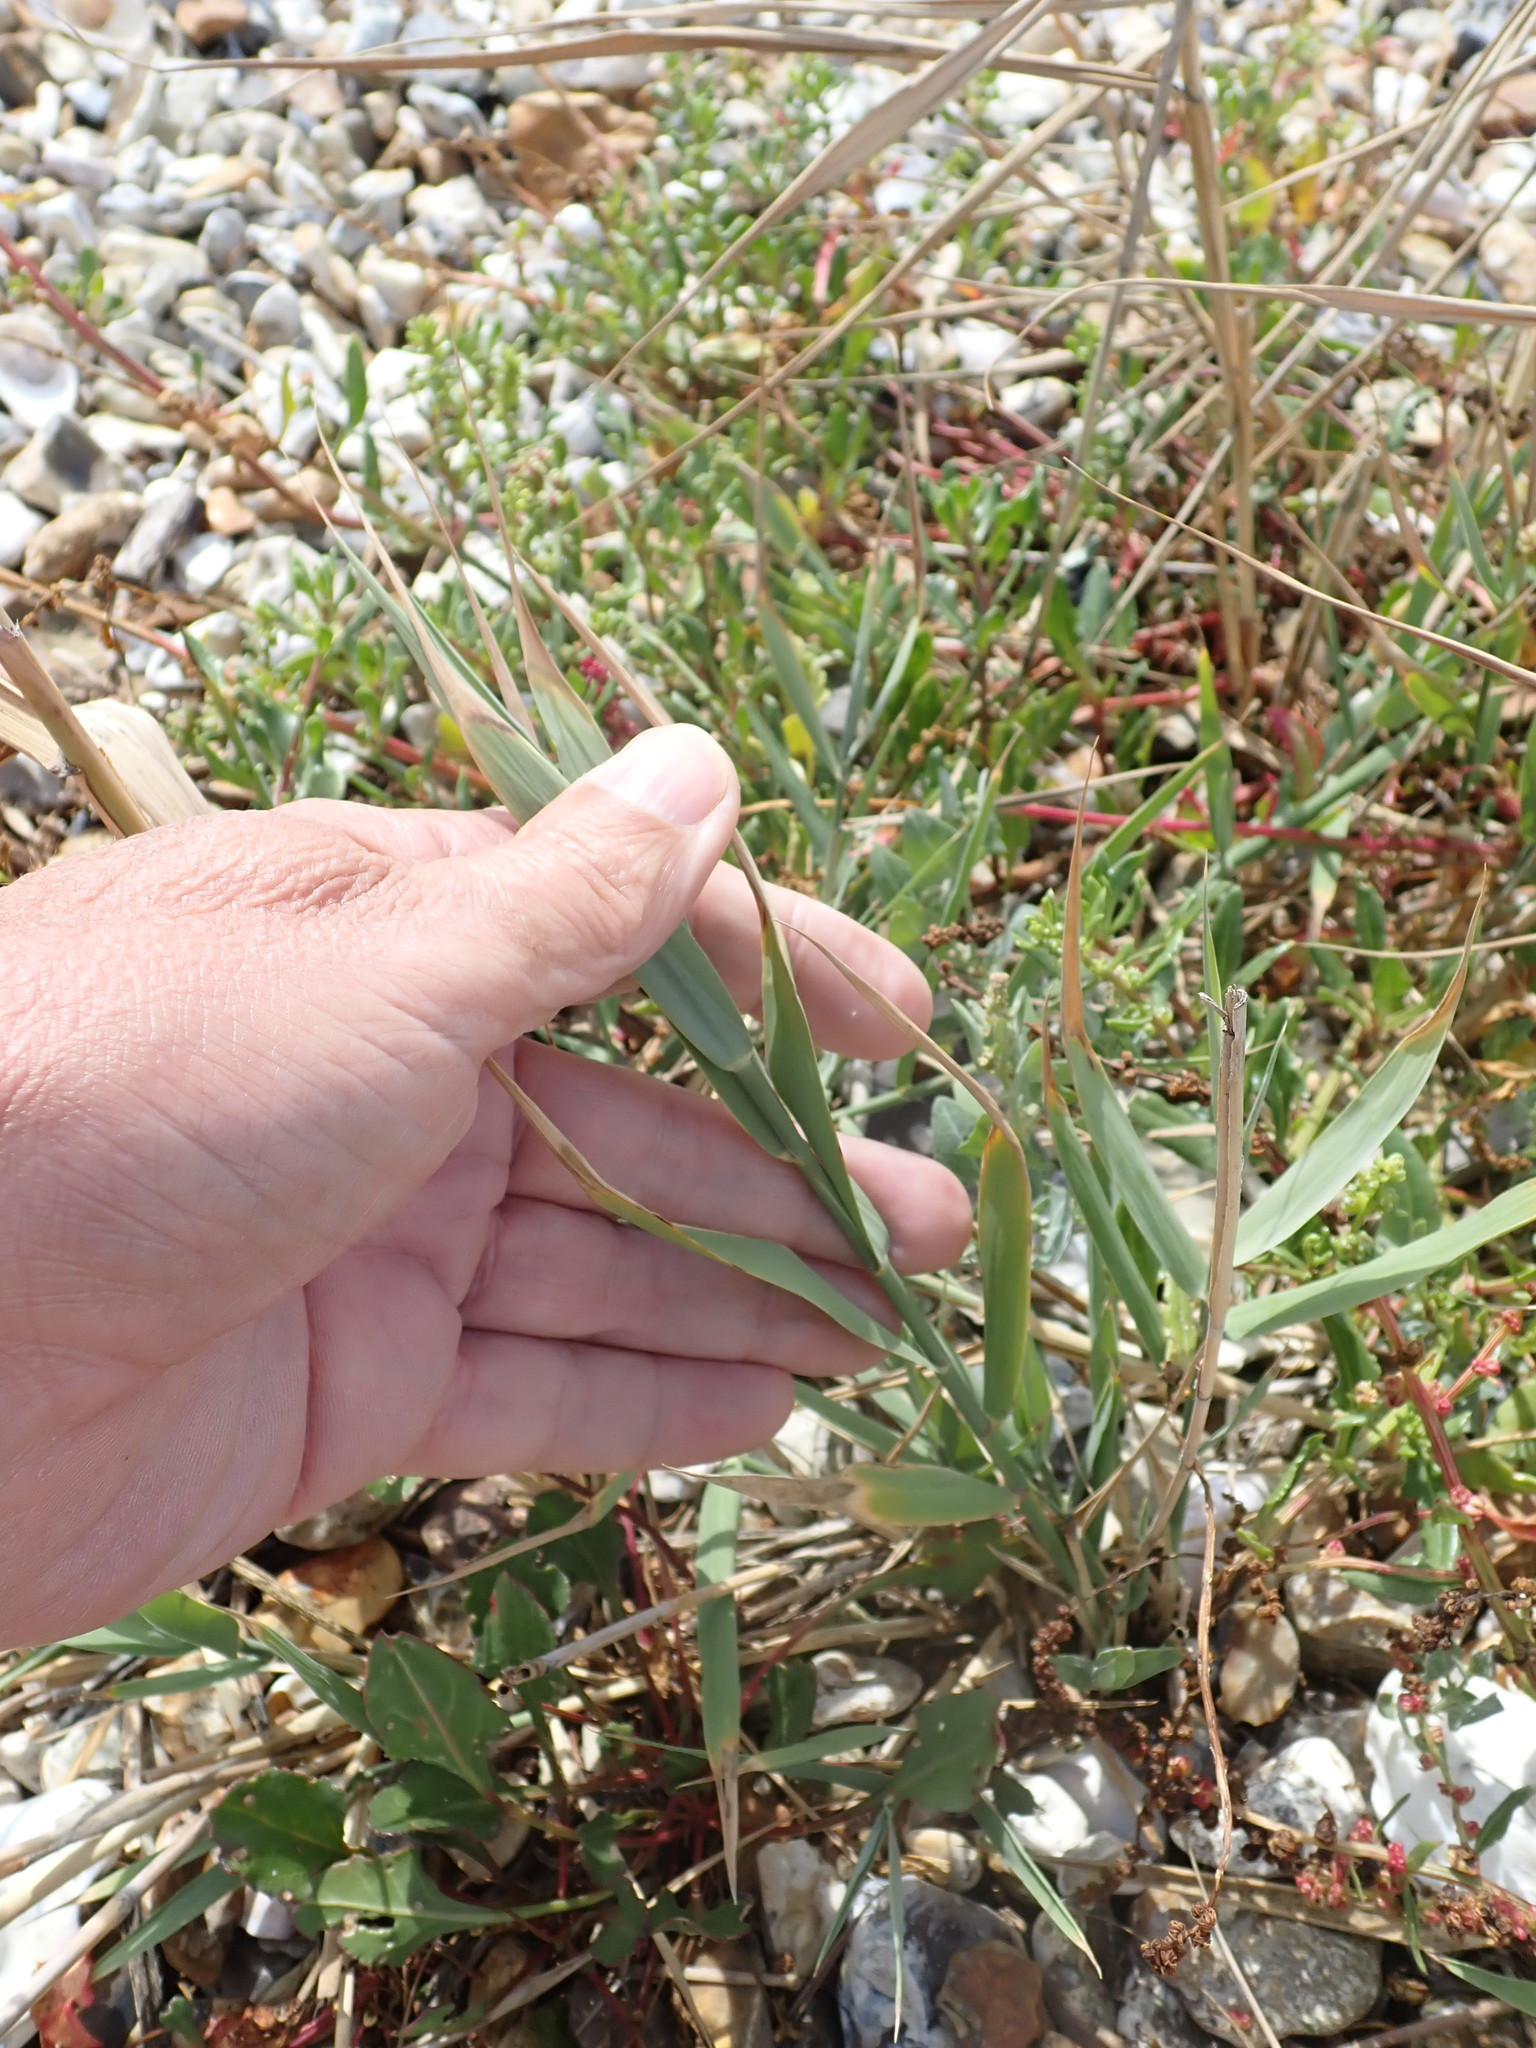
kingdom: Plantae
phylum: Tracheophyta
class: Liliopsida
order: Poales
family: Poaceae
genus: Phragmites
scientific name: Phragmites australis
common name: Common reed
